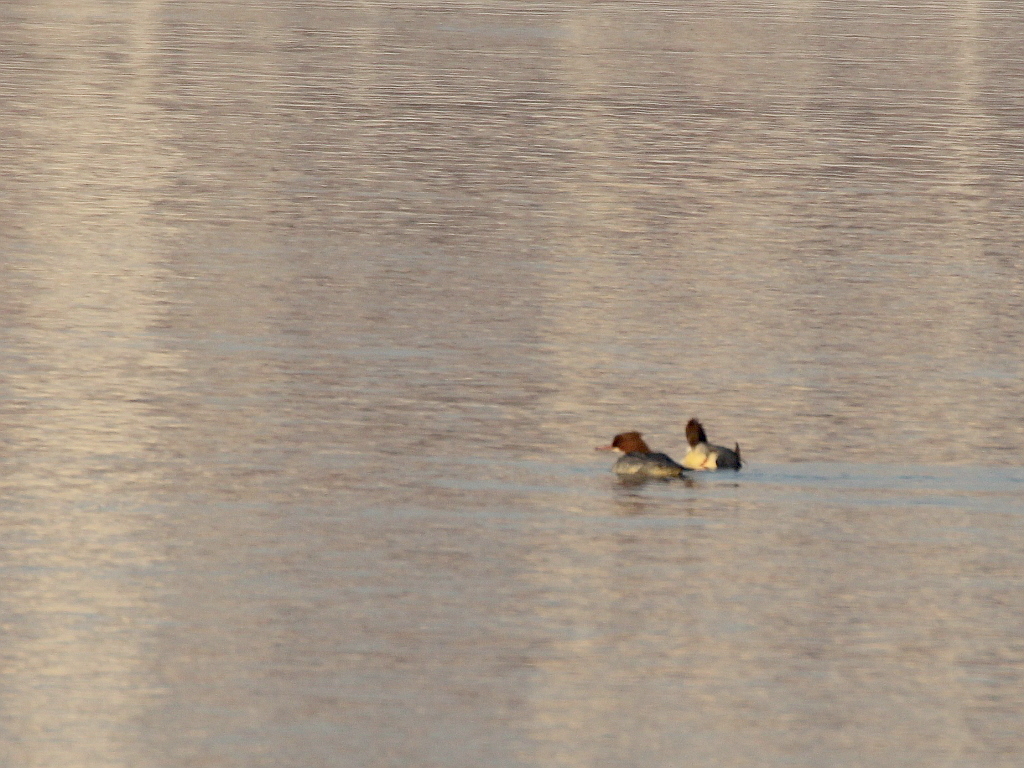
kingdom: Animalia
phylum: Chordata
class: Aves
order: Anseriformes
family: Anatidae
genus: Mergus
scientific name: Mergus merganser
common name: Common merganser
